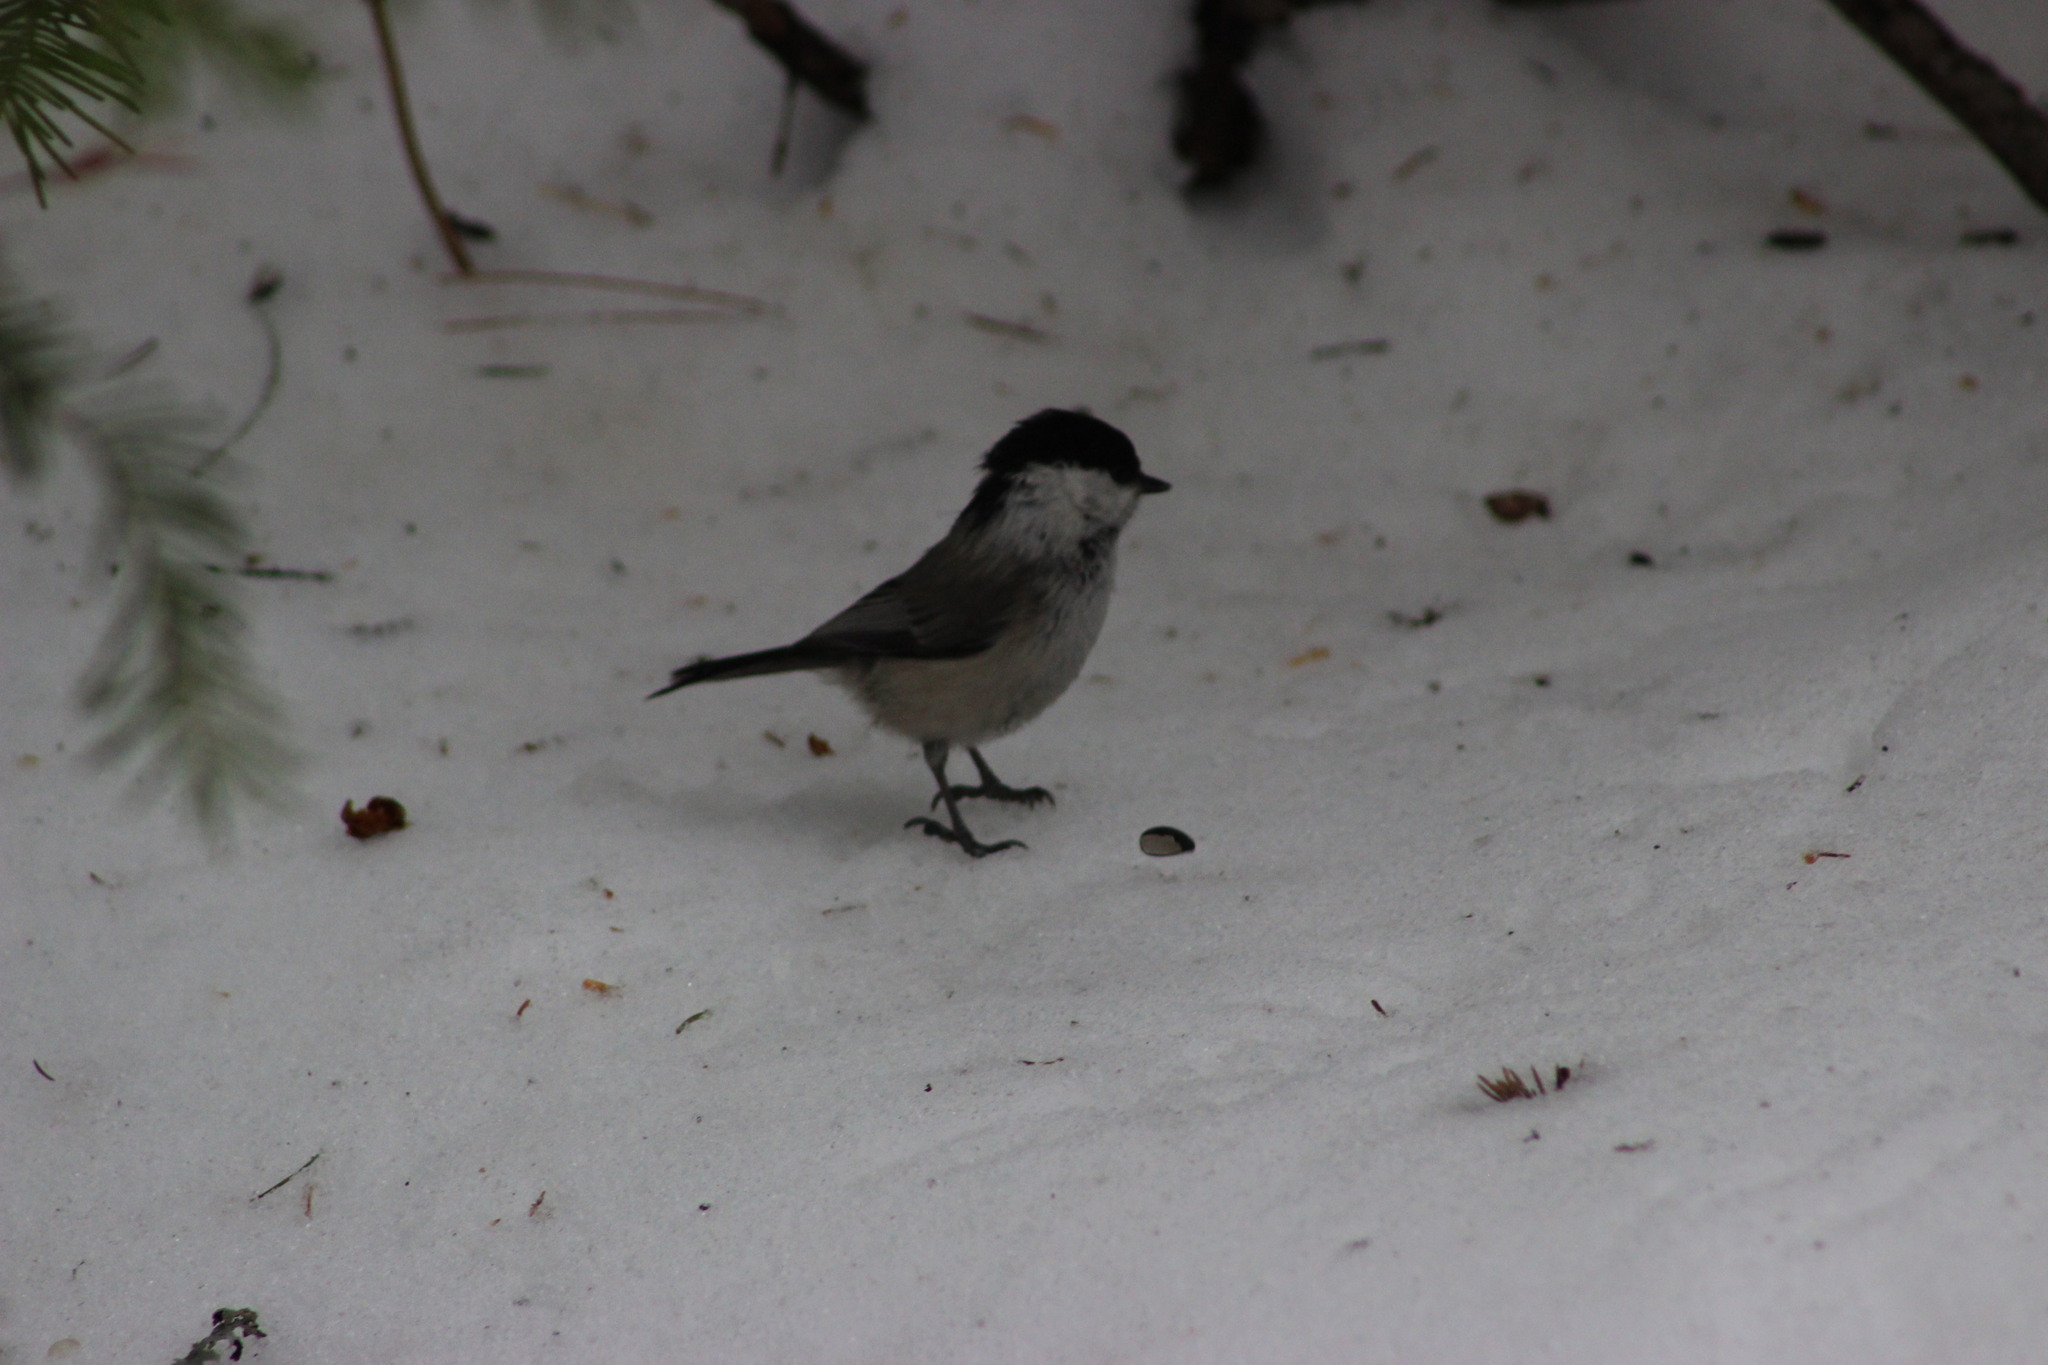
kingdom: Animalia
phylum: Chordata
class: Aves
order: Passeriformes
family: Paridae
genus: Poecile
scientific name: Poecile montanus
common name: Willow tit
